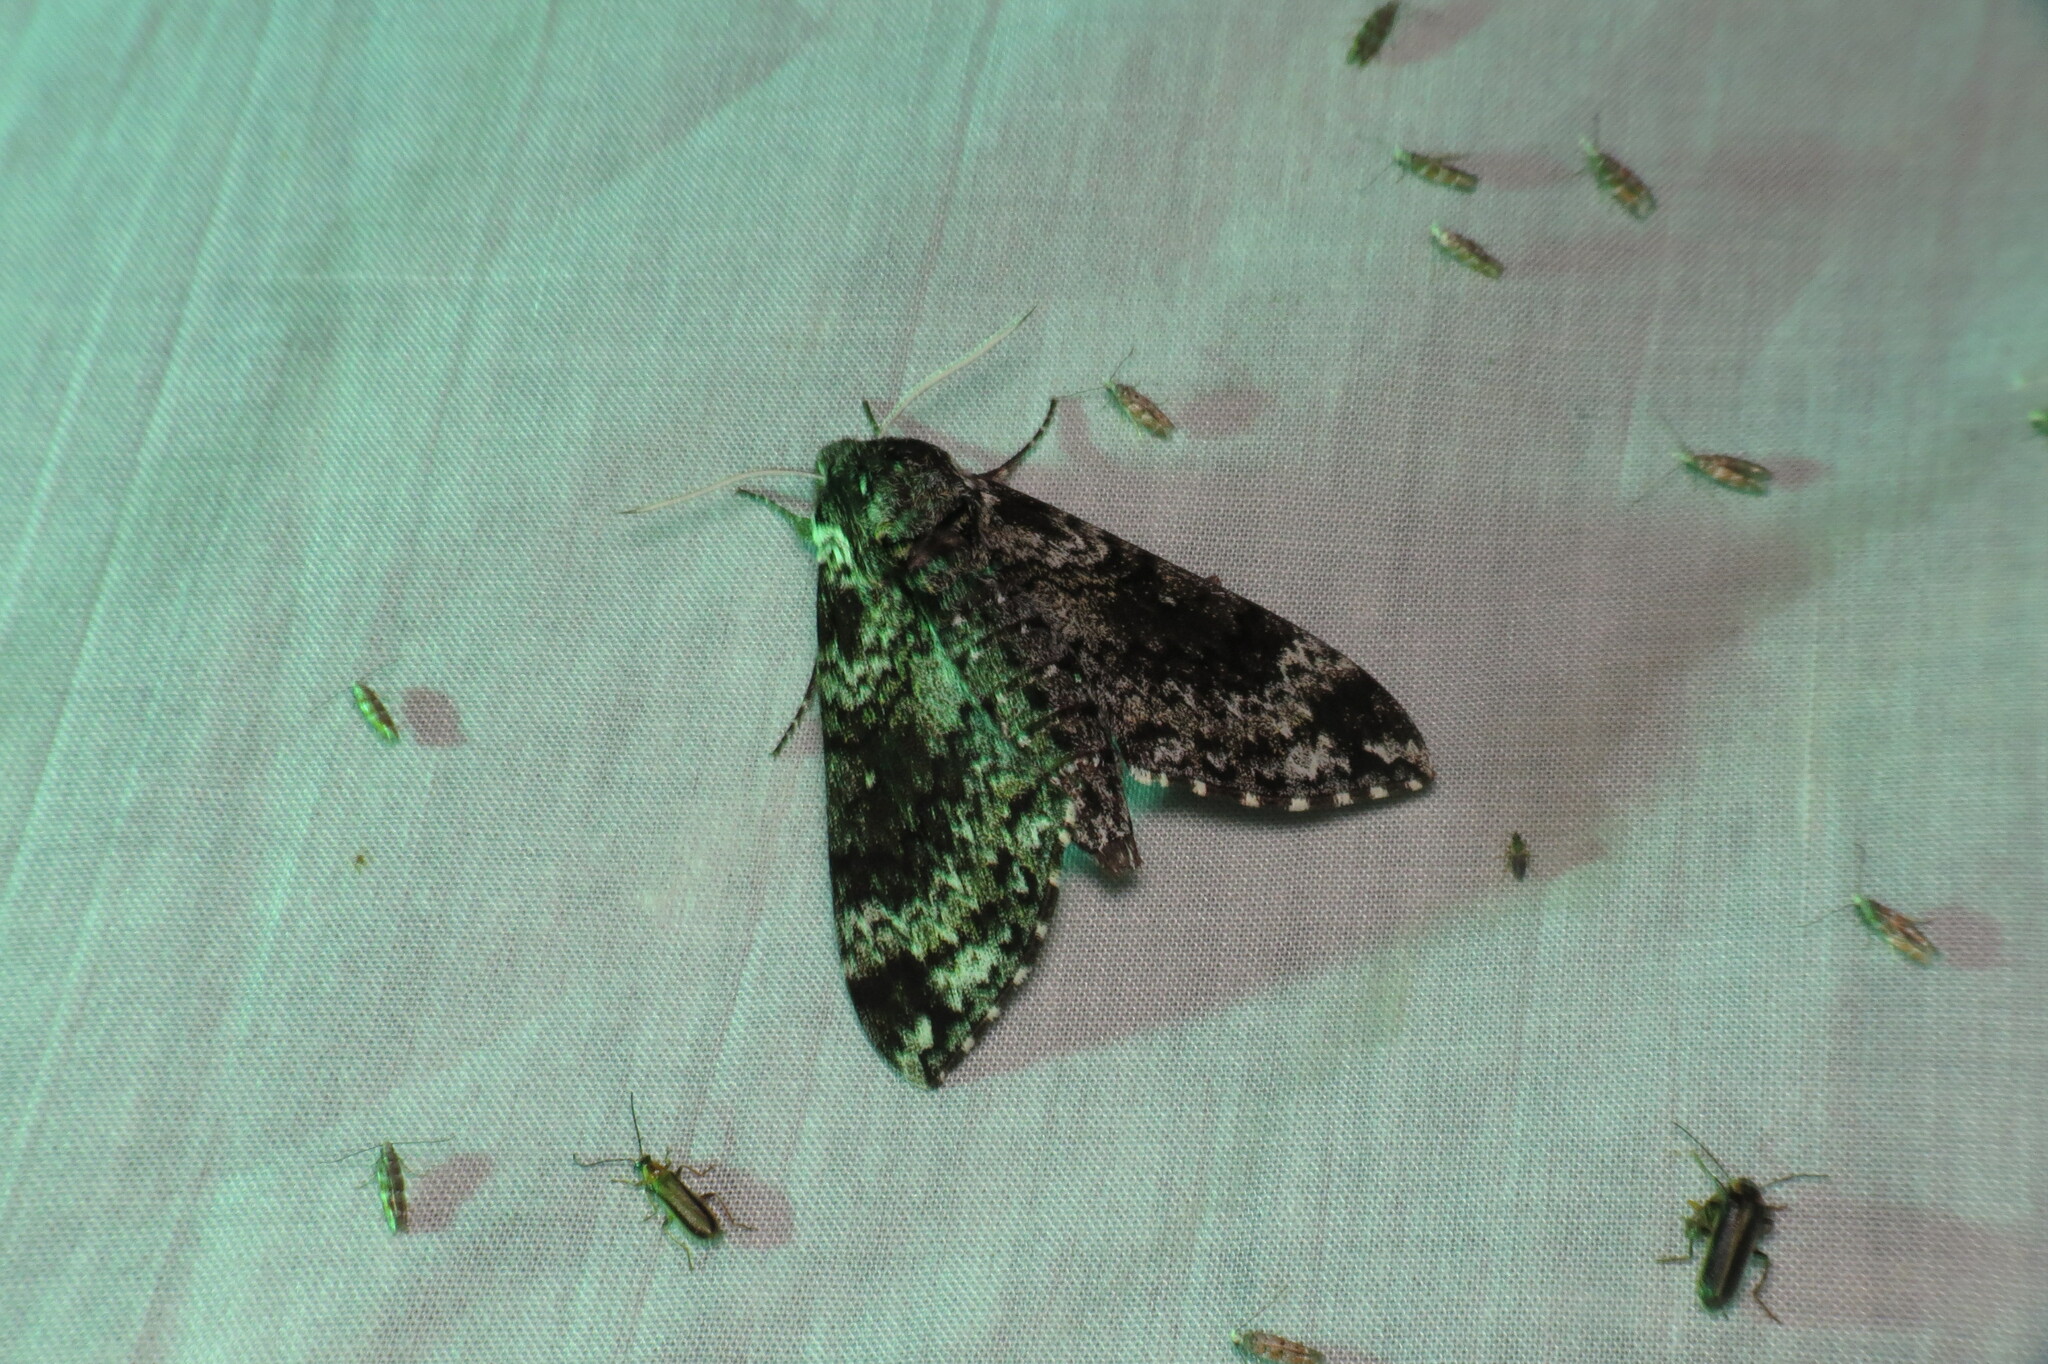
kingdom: Animalia
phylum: Arthropoda
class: Insecta
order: Lepidoptera
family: Sphingidae
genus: Dolba
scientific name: Dolba hyloeus
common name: Pawpaw sphinx
